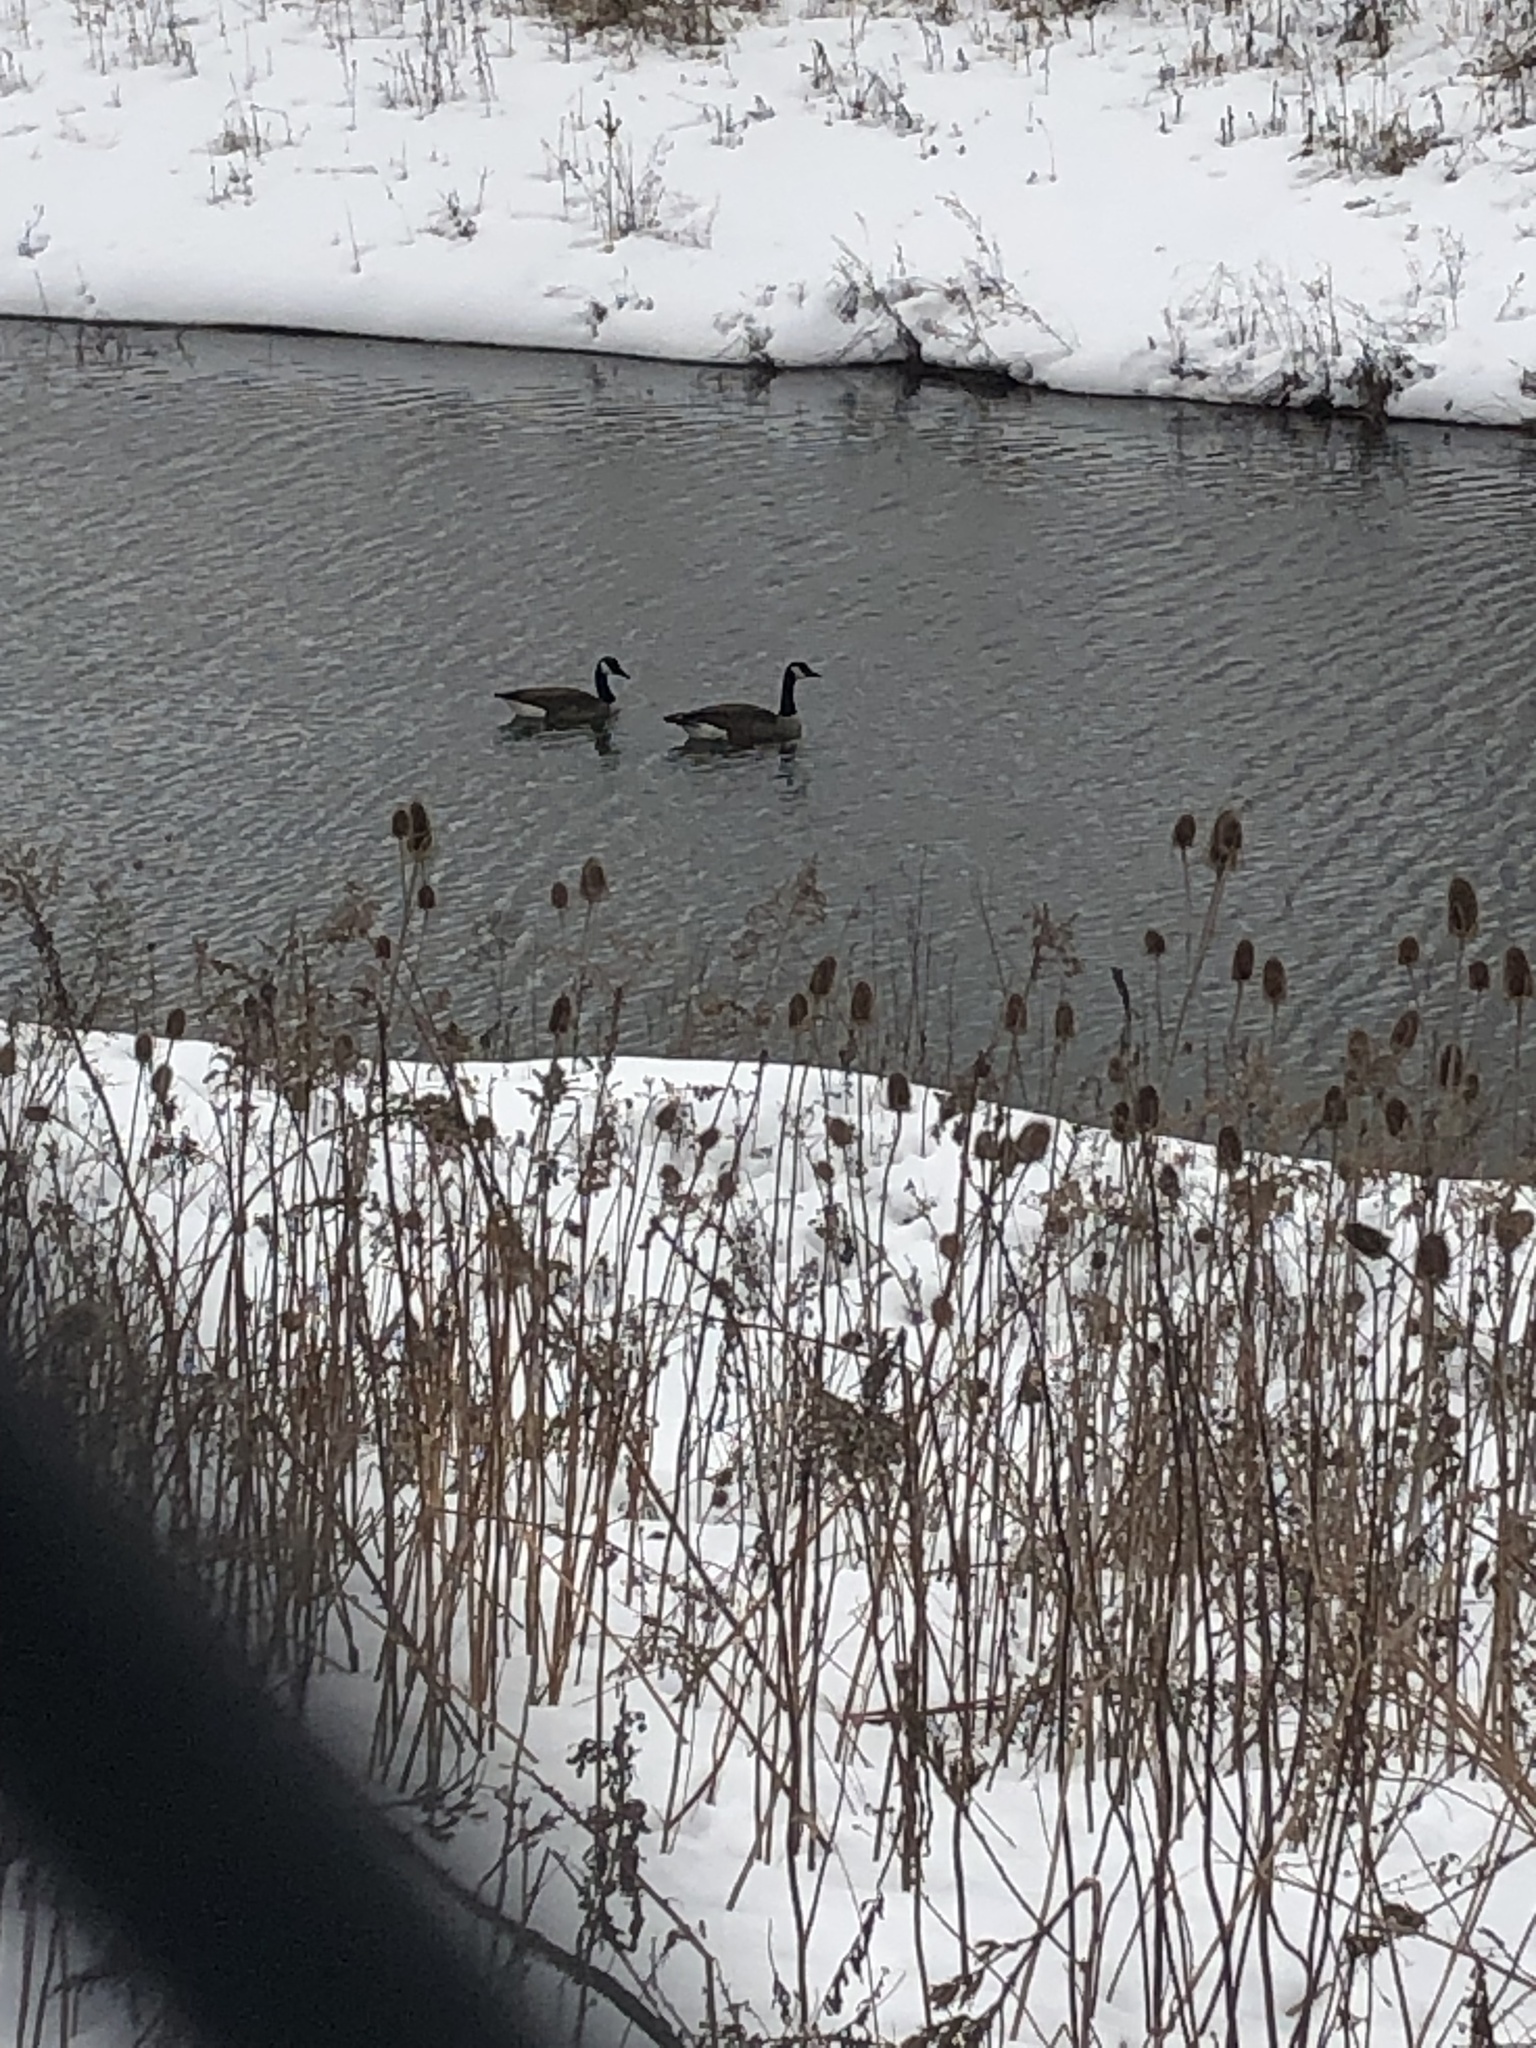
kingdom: Animalia
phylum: Chordata
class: Aves
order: Anseriformes
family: Anatidae
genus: Branta
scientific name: Branta canadensis
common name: Canada goose
